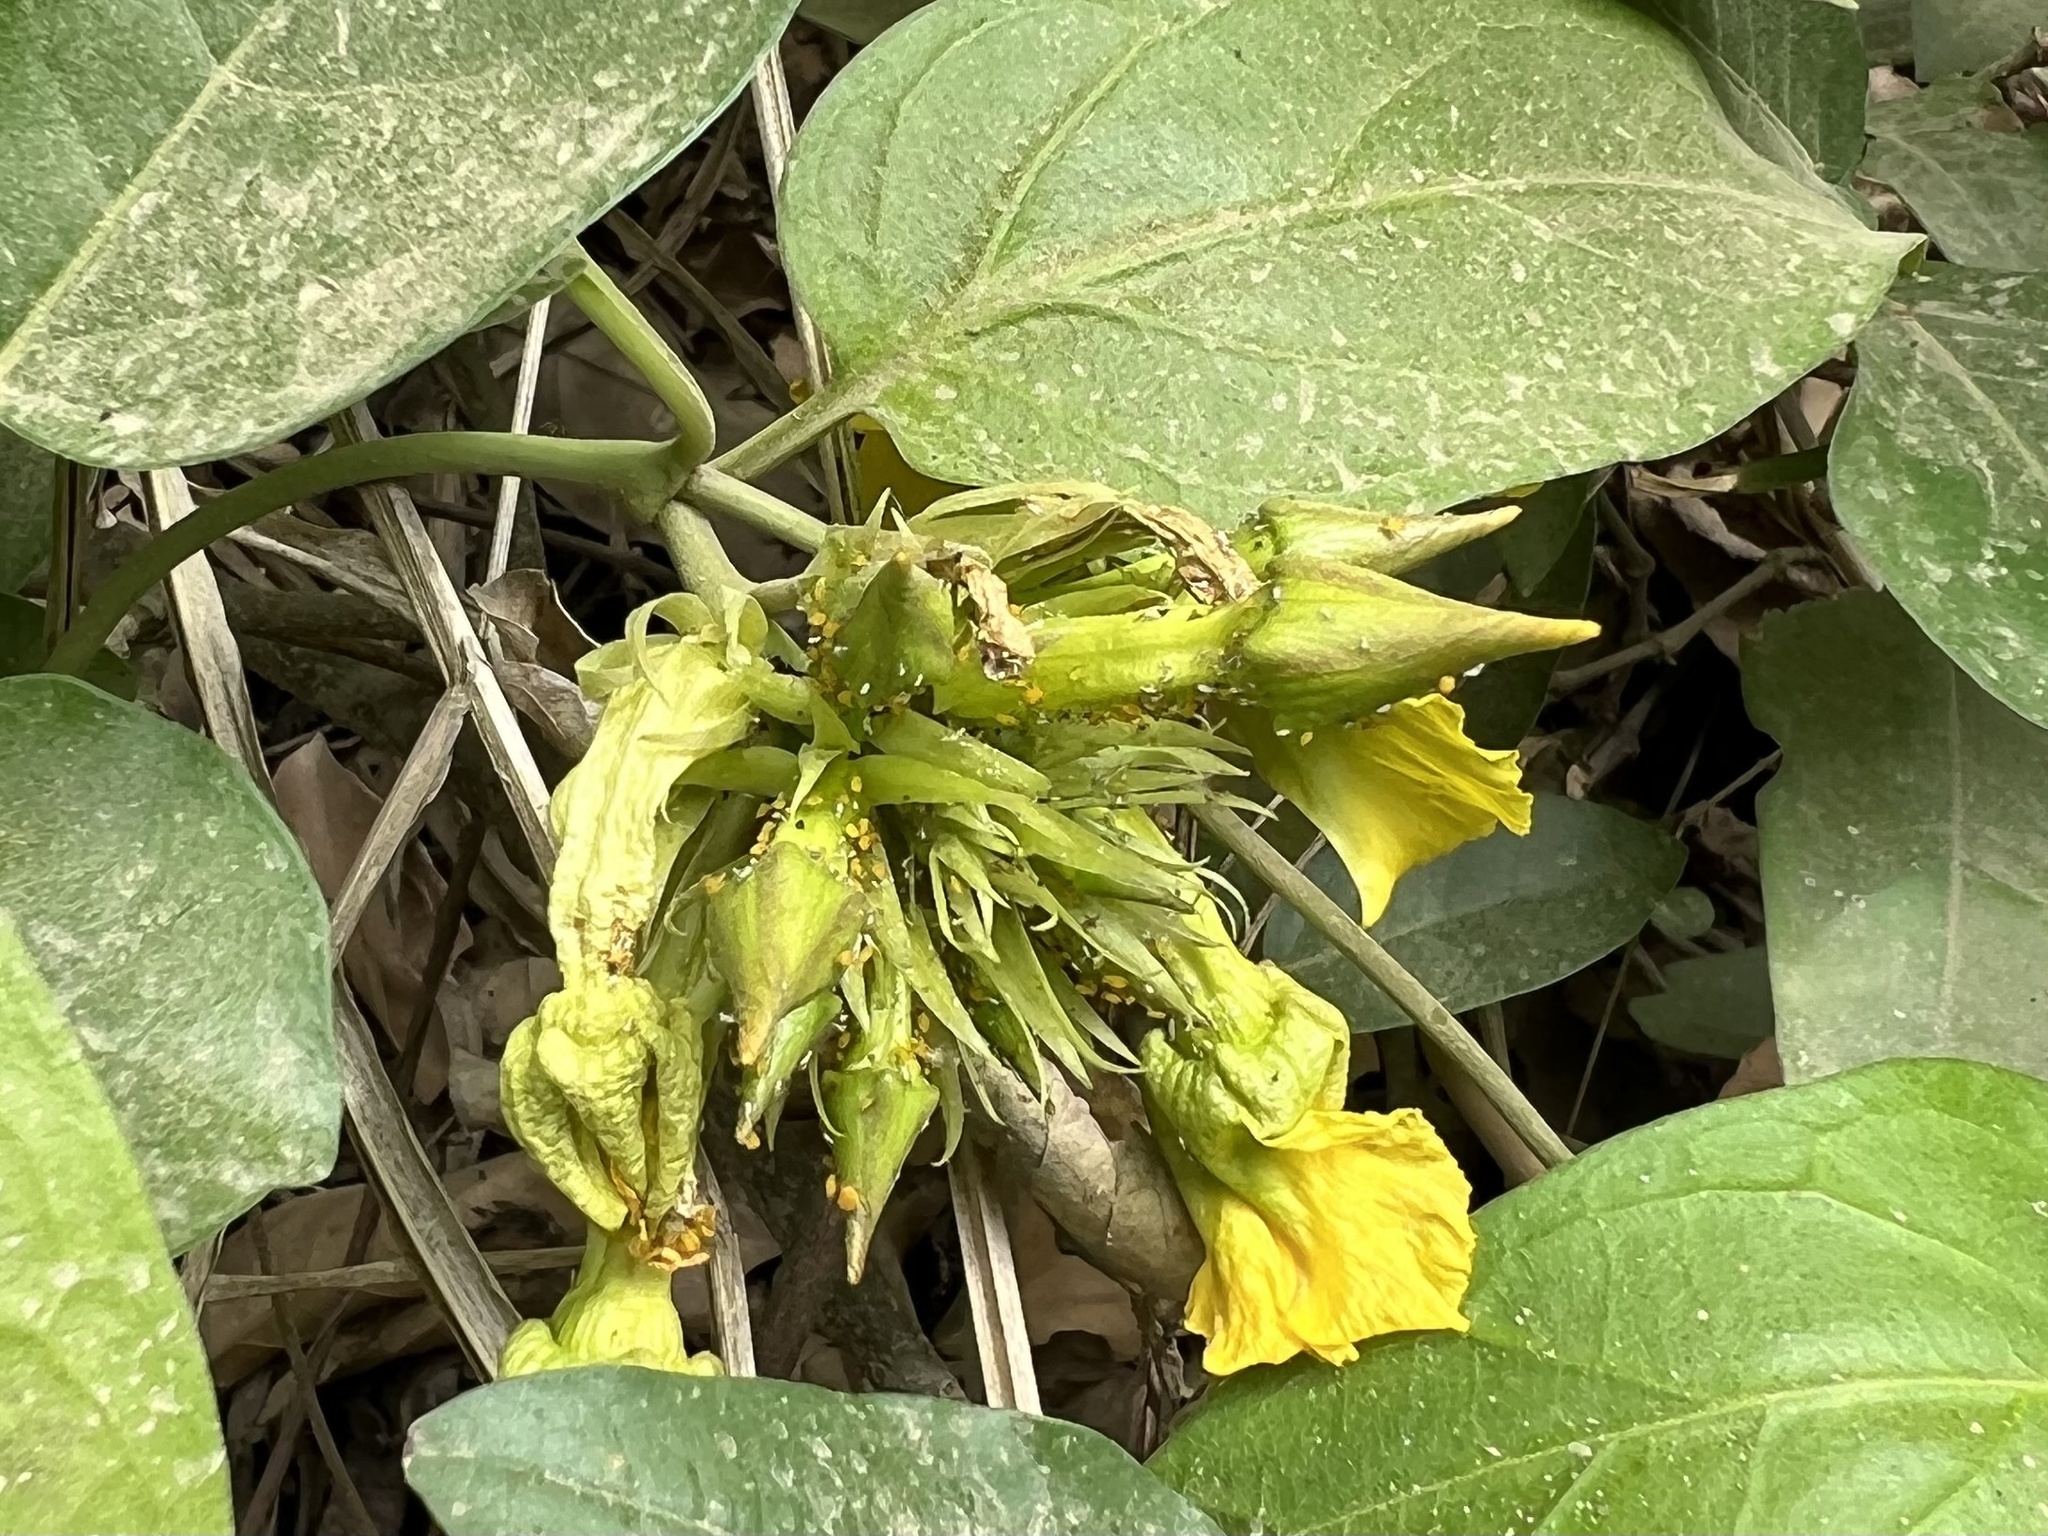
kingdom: Plantae
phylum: Tracheophyta
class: Magnoliopsida
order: Gentianales
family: Apocynaceae
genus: Prestonia
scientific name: Prestonia mollis
